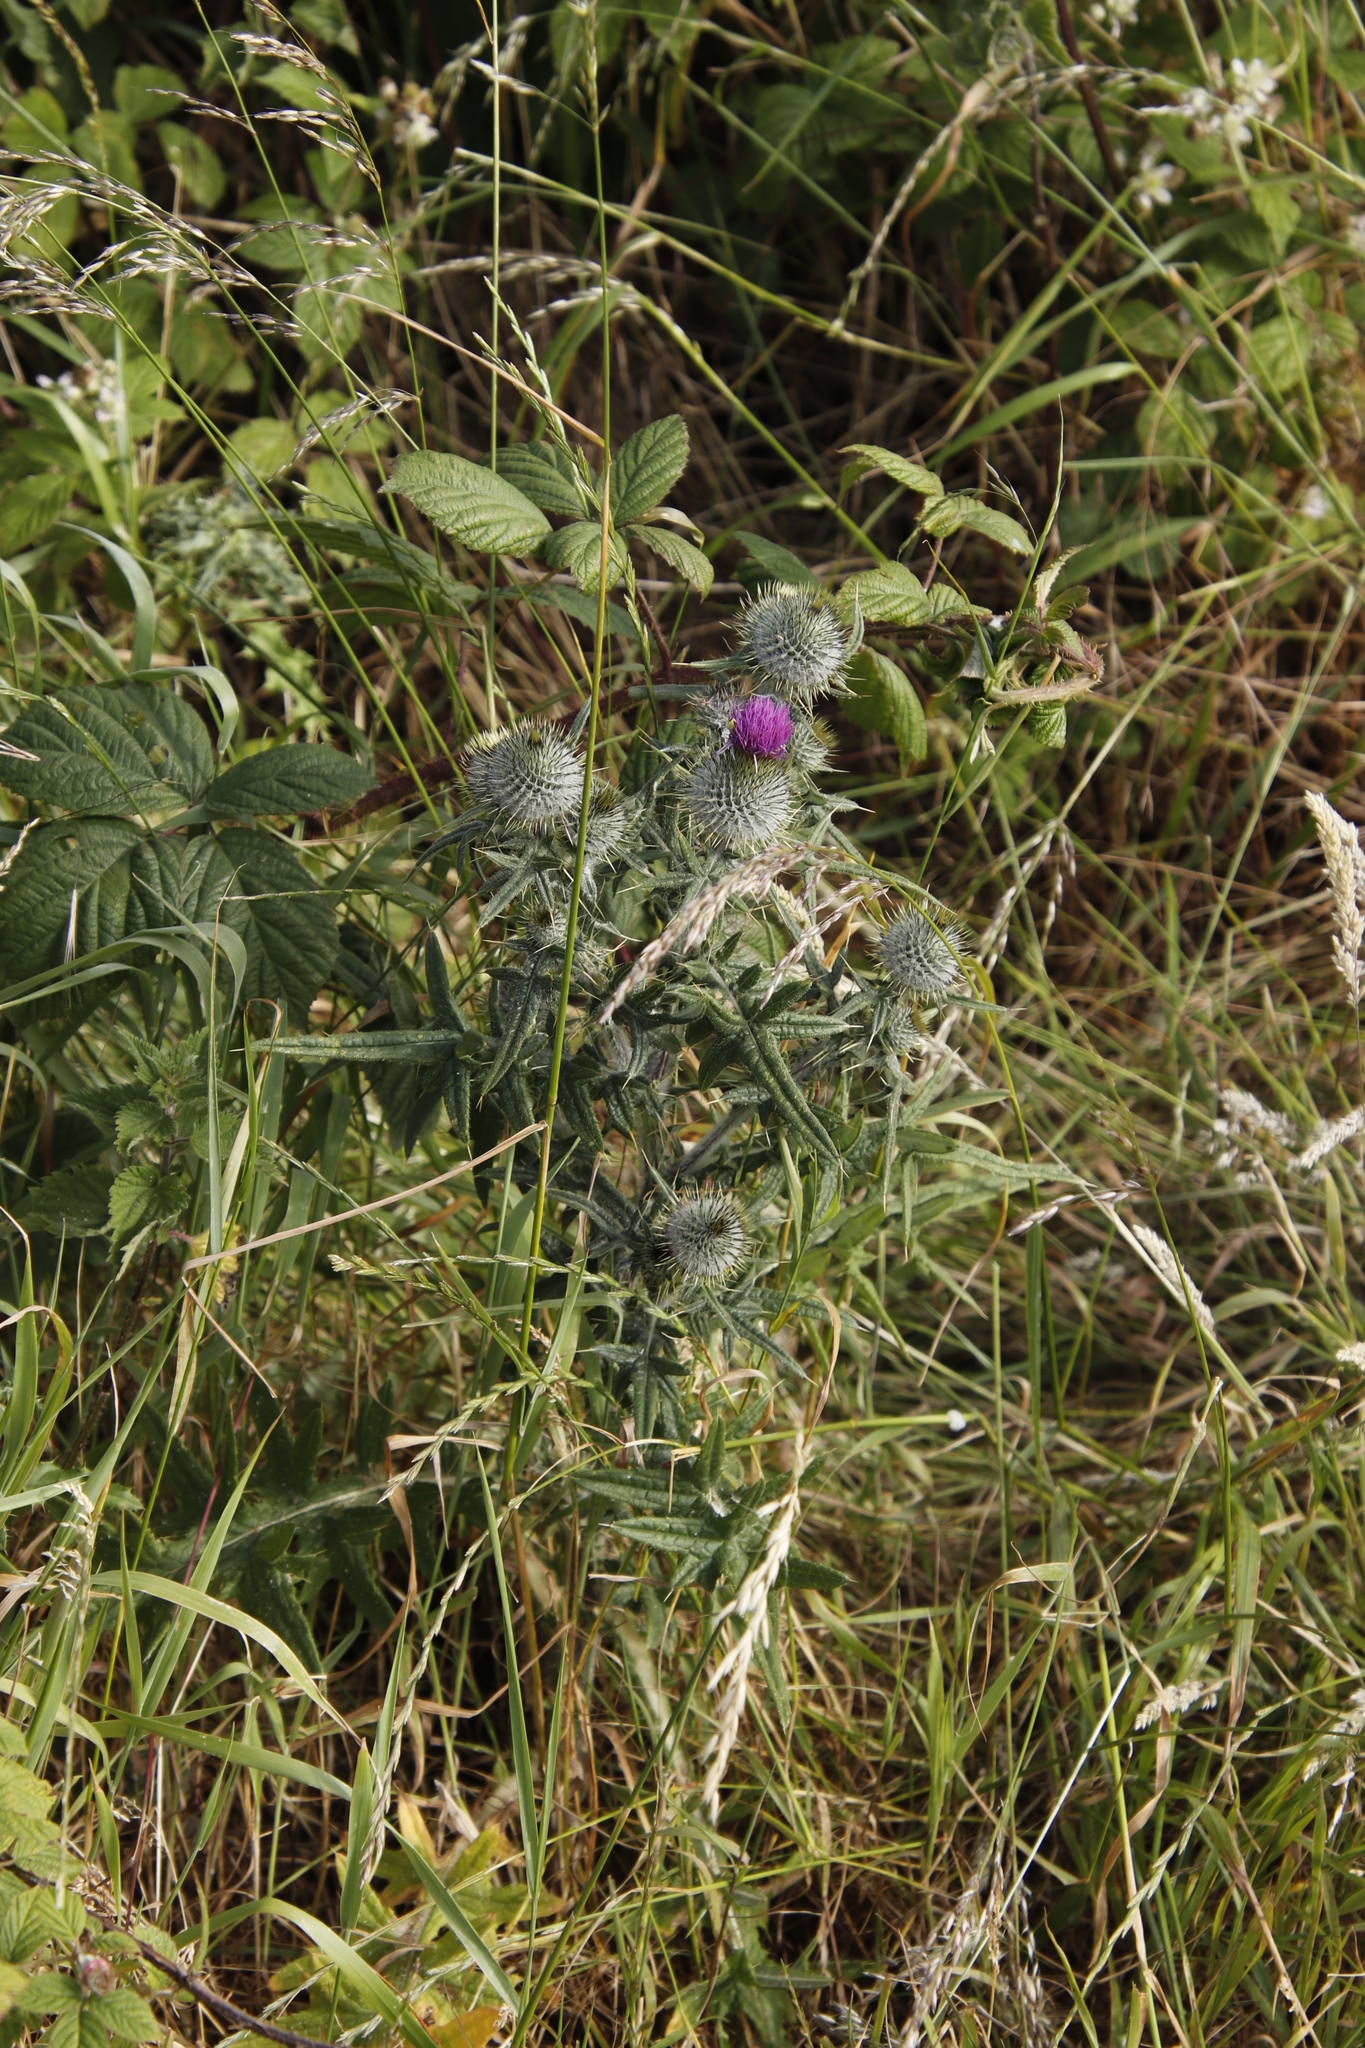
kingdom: Plantae
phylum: Tracheophyta
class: Magnoliopsida
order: Asterales
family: Asteraceae
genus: Cirsium
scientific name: Cirsium vulgare
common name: Bull thistle
